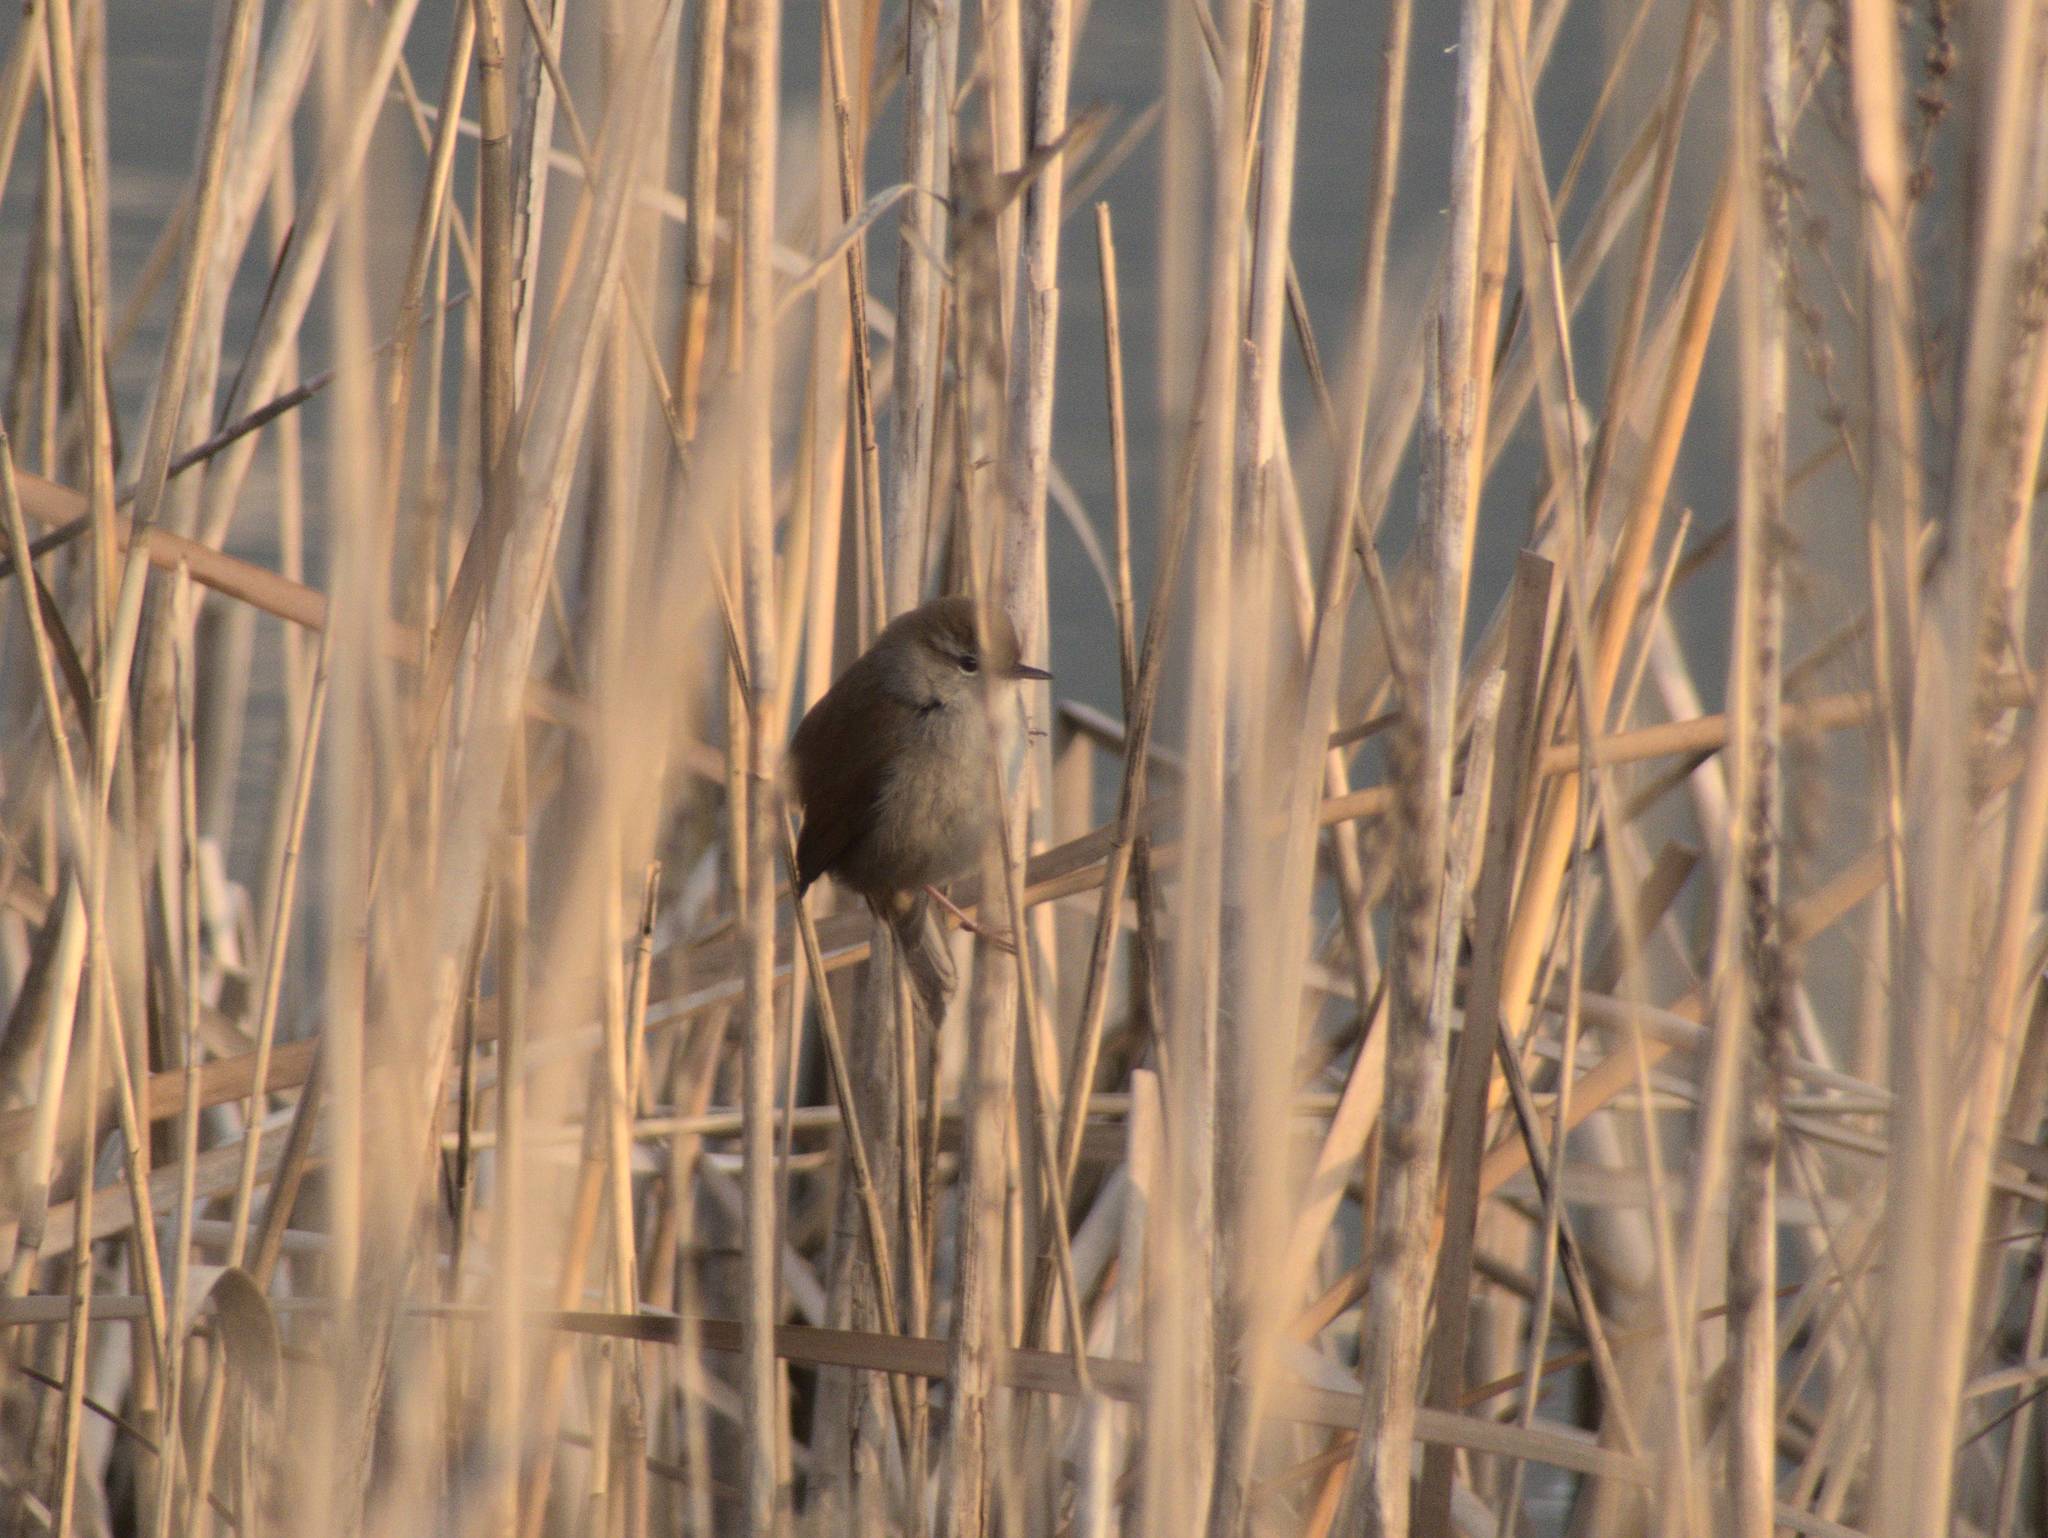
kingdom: Animalia
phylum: Chordata
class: Aves
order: Passeriformes
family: Cettiidae
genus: Cettia
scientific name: Cettia cetti
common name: Cetti's warbler
